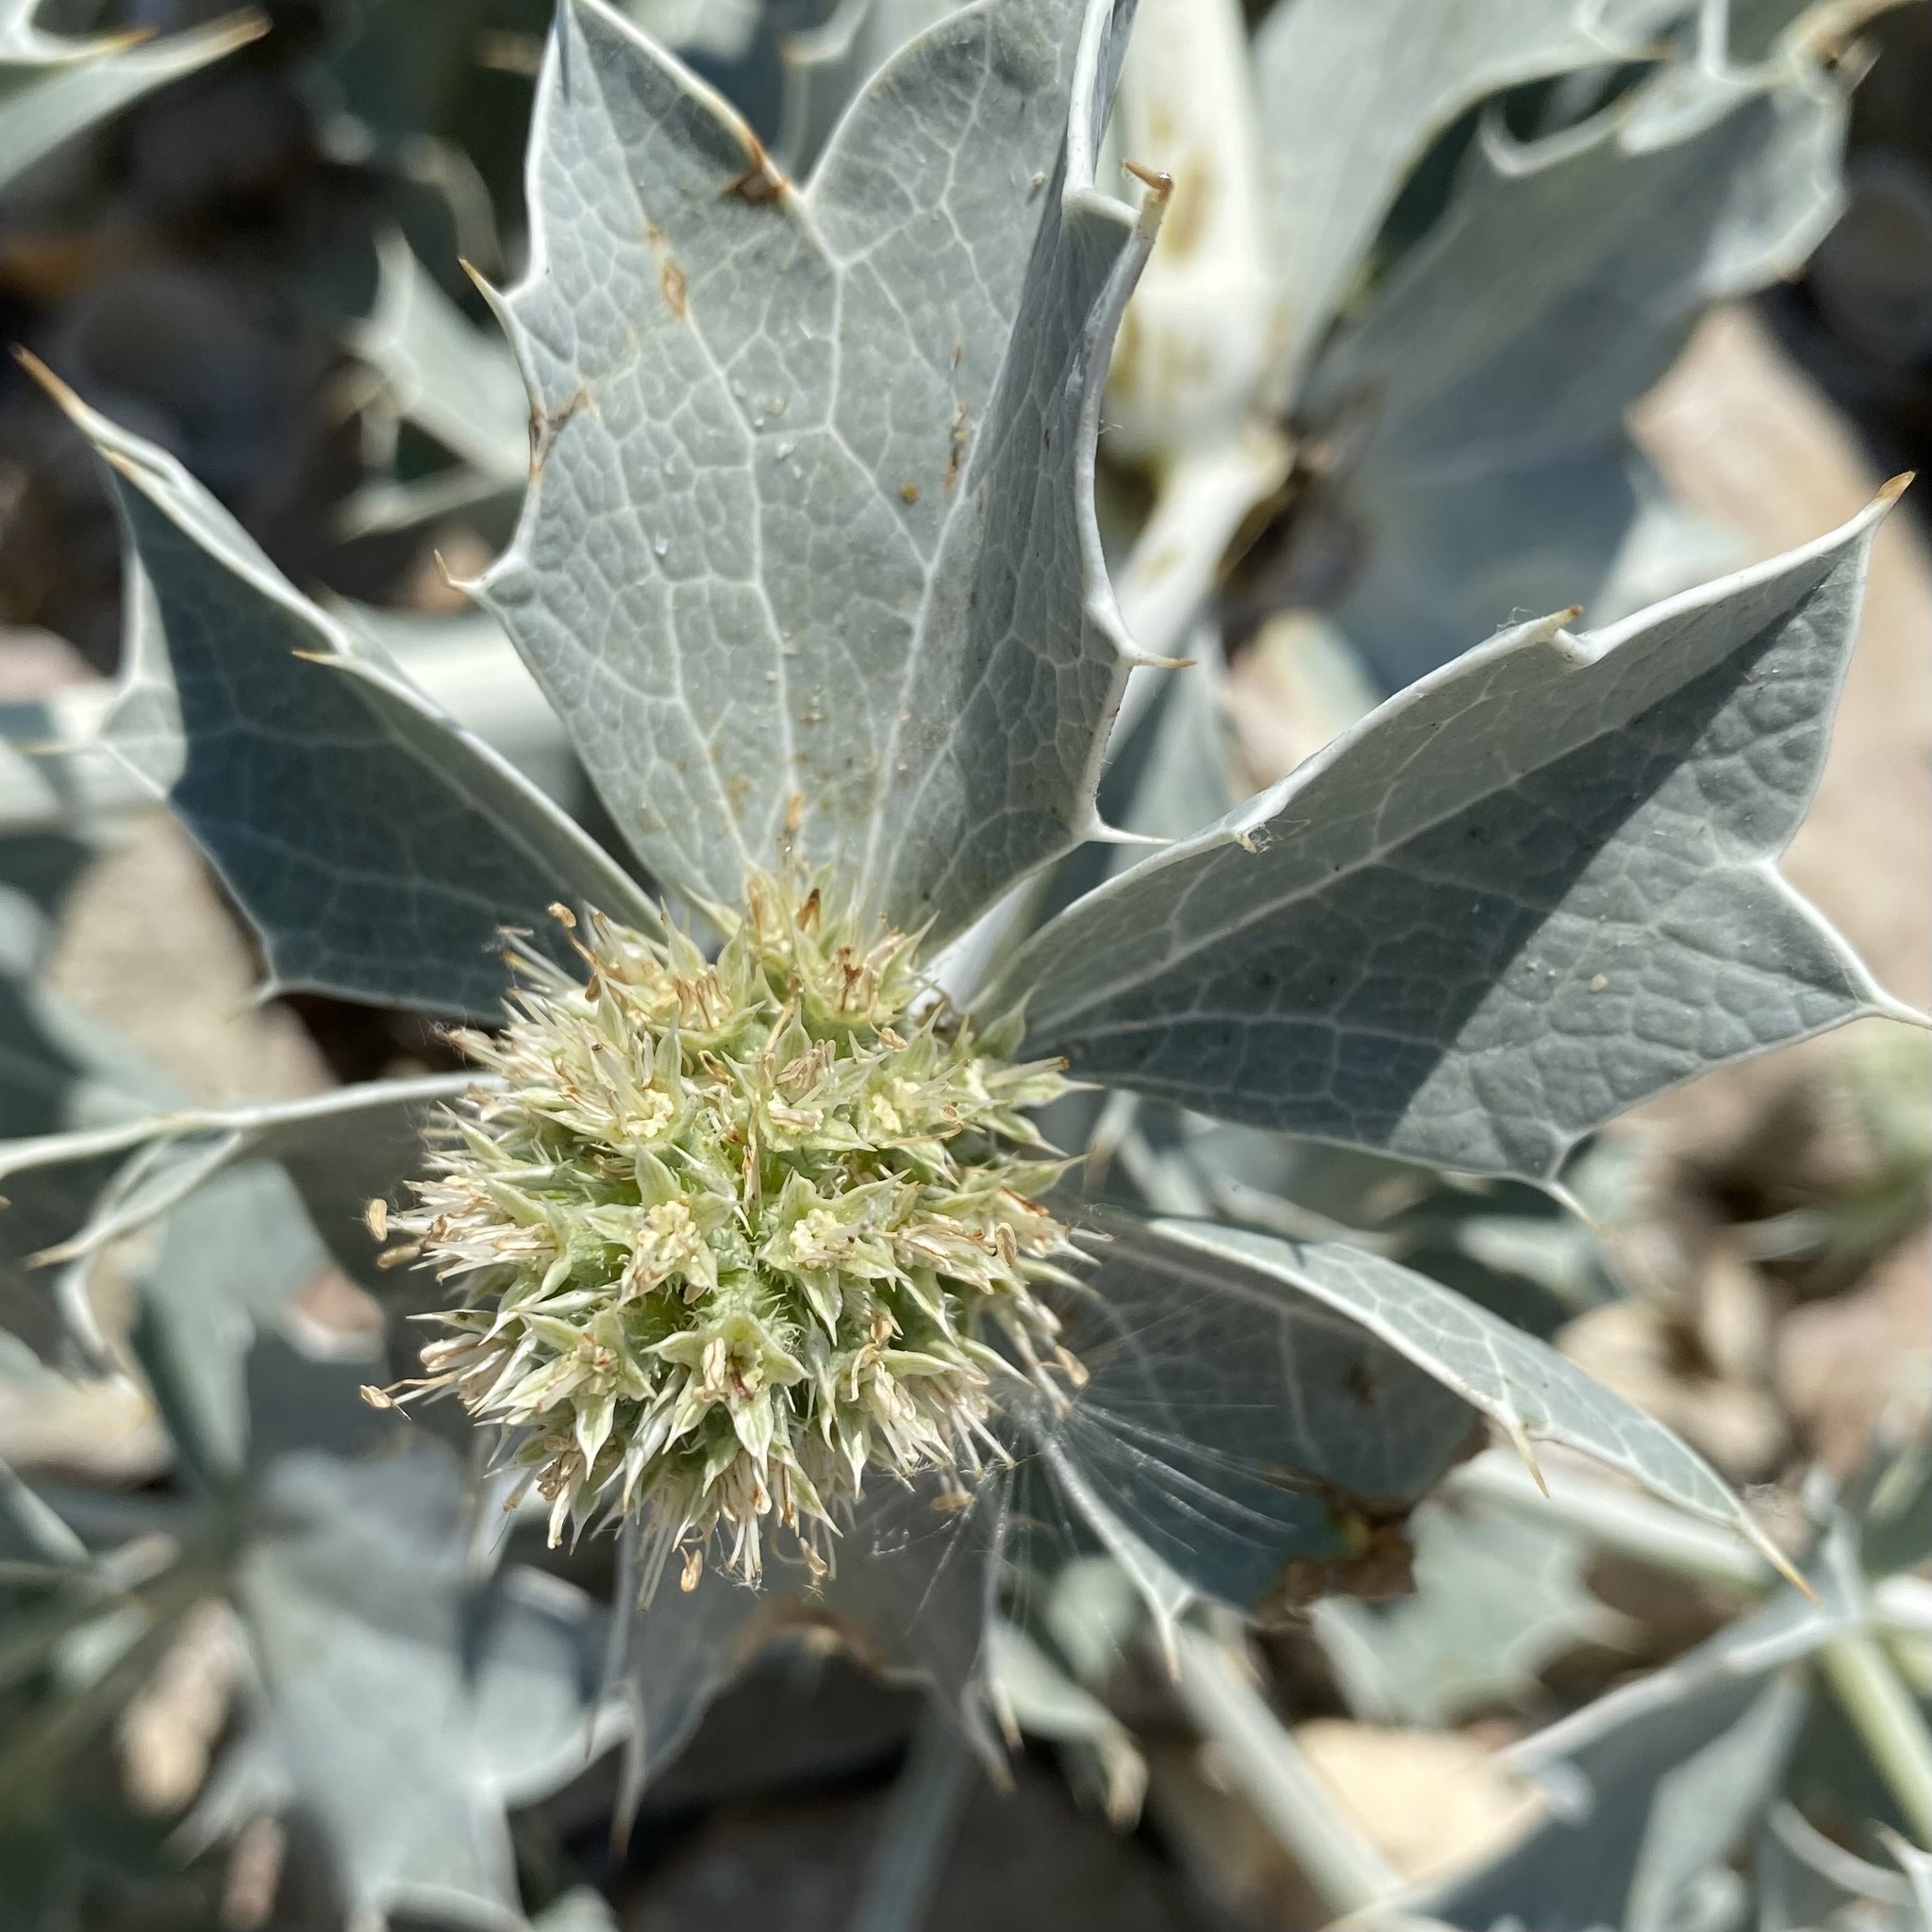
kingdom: Plantae
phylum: Tracheophyta
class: Magnoliopsida
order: Apiales
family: Apiaceae
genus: Eryngium
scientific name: Eryngium maritimum
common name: Sea-holly
